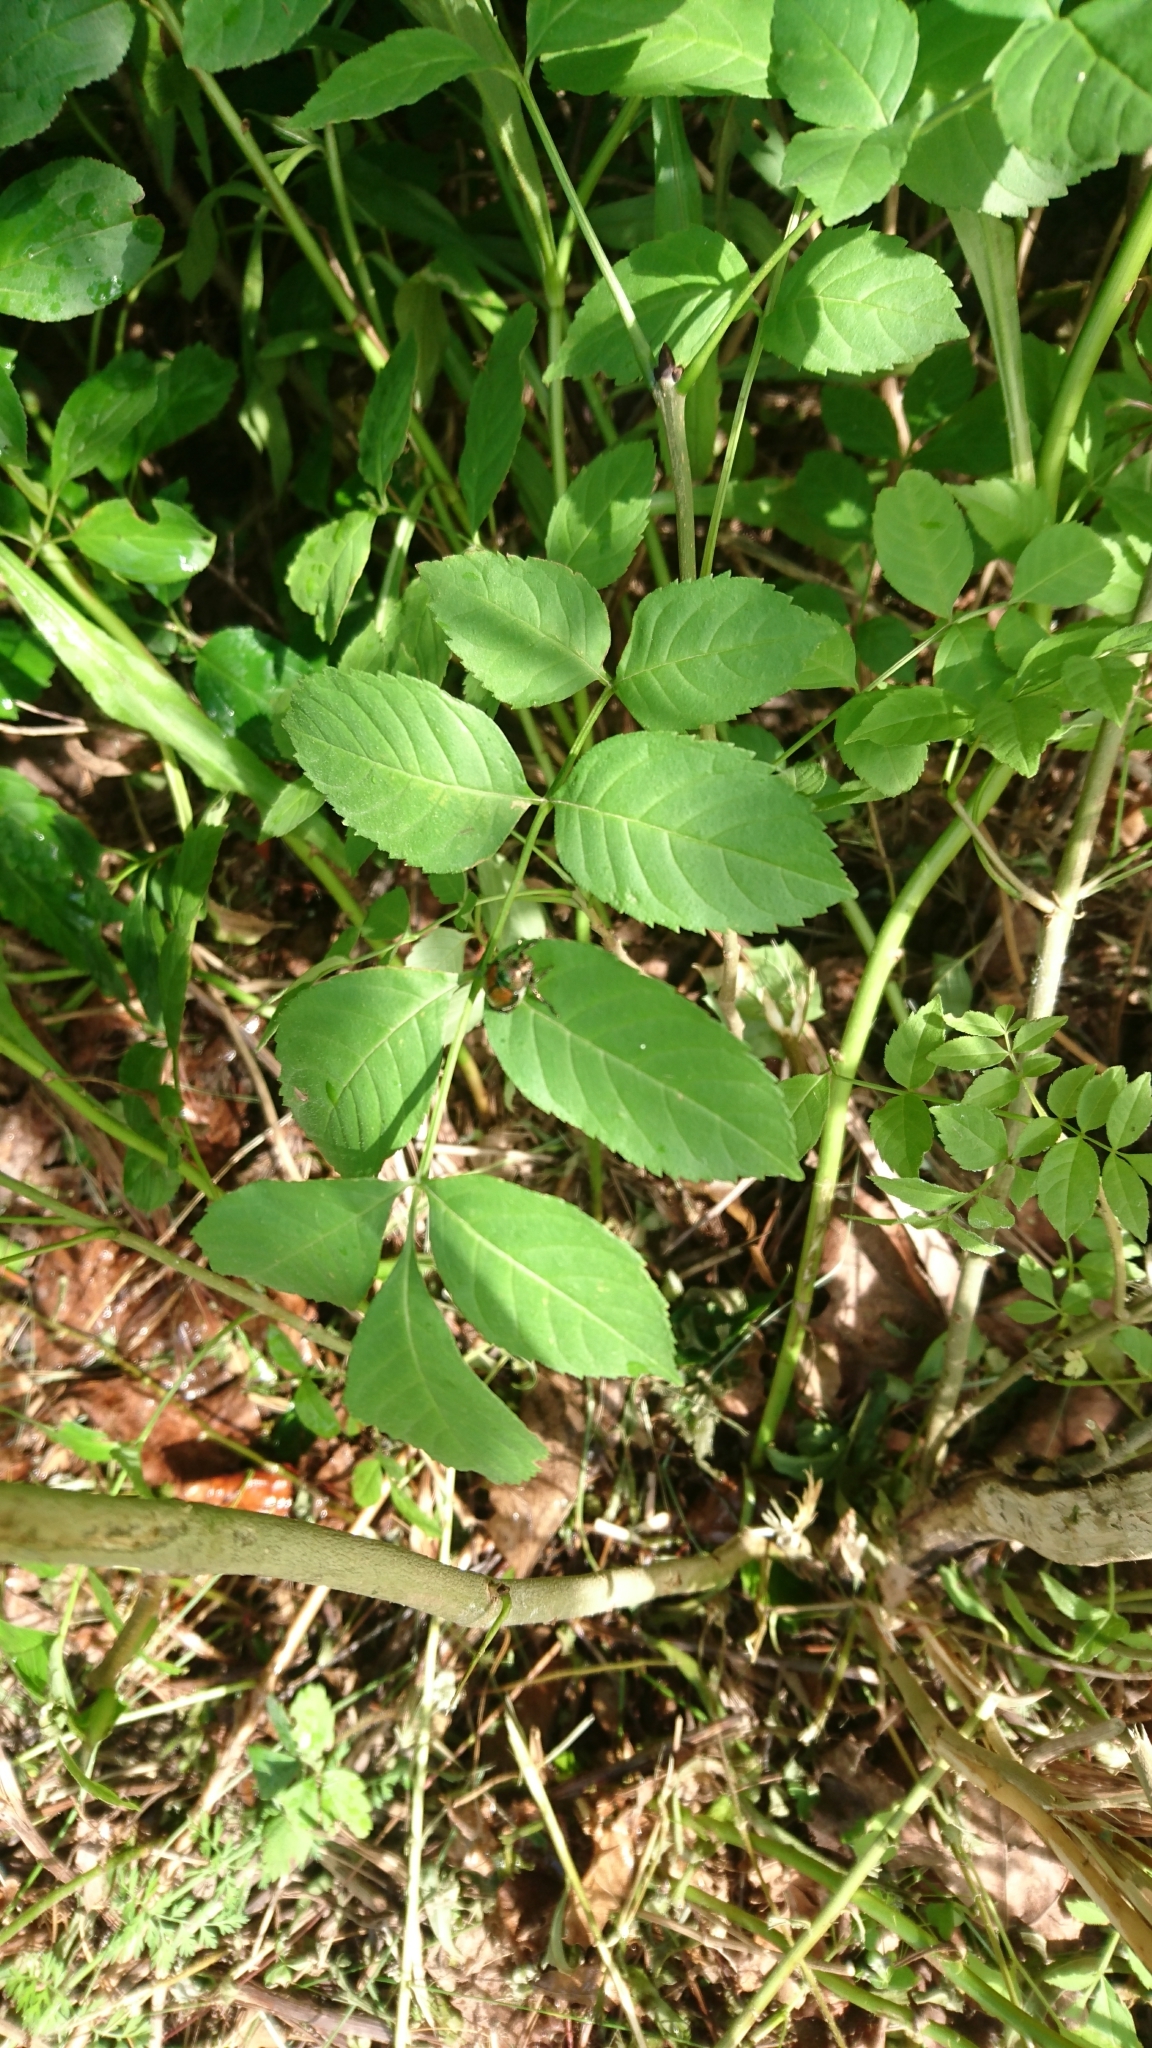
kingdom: Animalia
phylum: Arthropoda
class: Insecta
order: Coleoptera
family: Scarabaeidae
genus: Popillia
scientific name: Popillia japonica
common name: Japanese beetle
